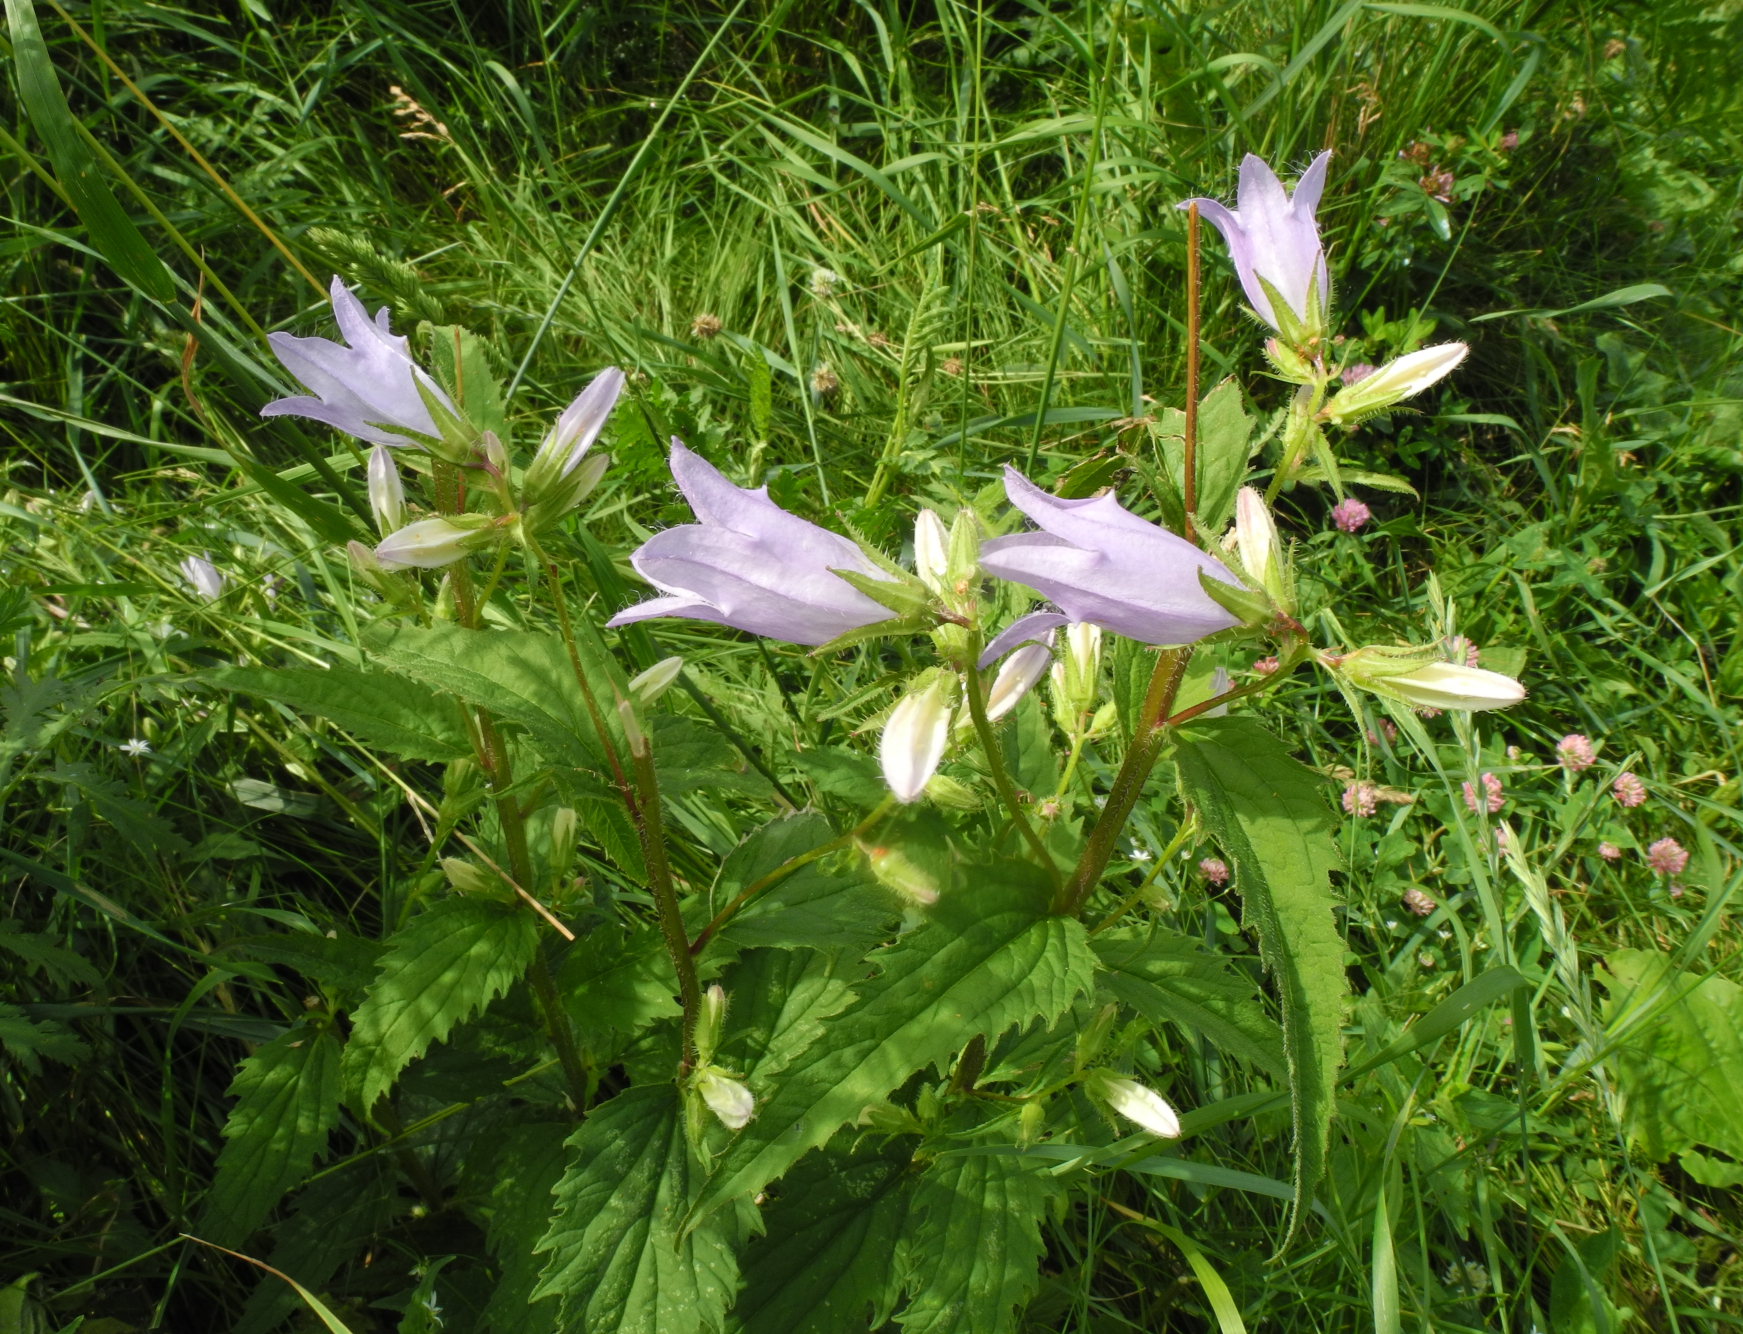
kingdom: Plantae
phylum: Tracheophyta
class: Magnoliopsida
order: Asterales
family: Campanulaceae
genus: Campanula
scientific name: Campanula trachelium
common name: Nettle-leaved bellflower
